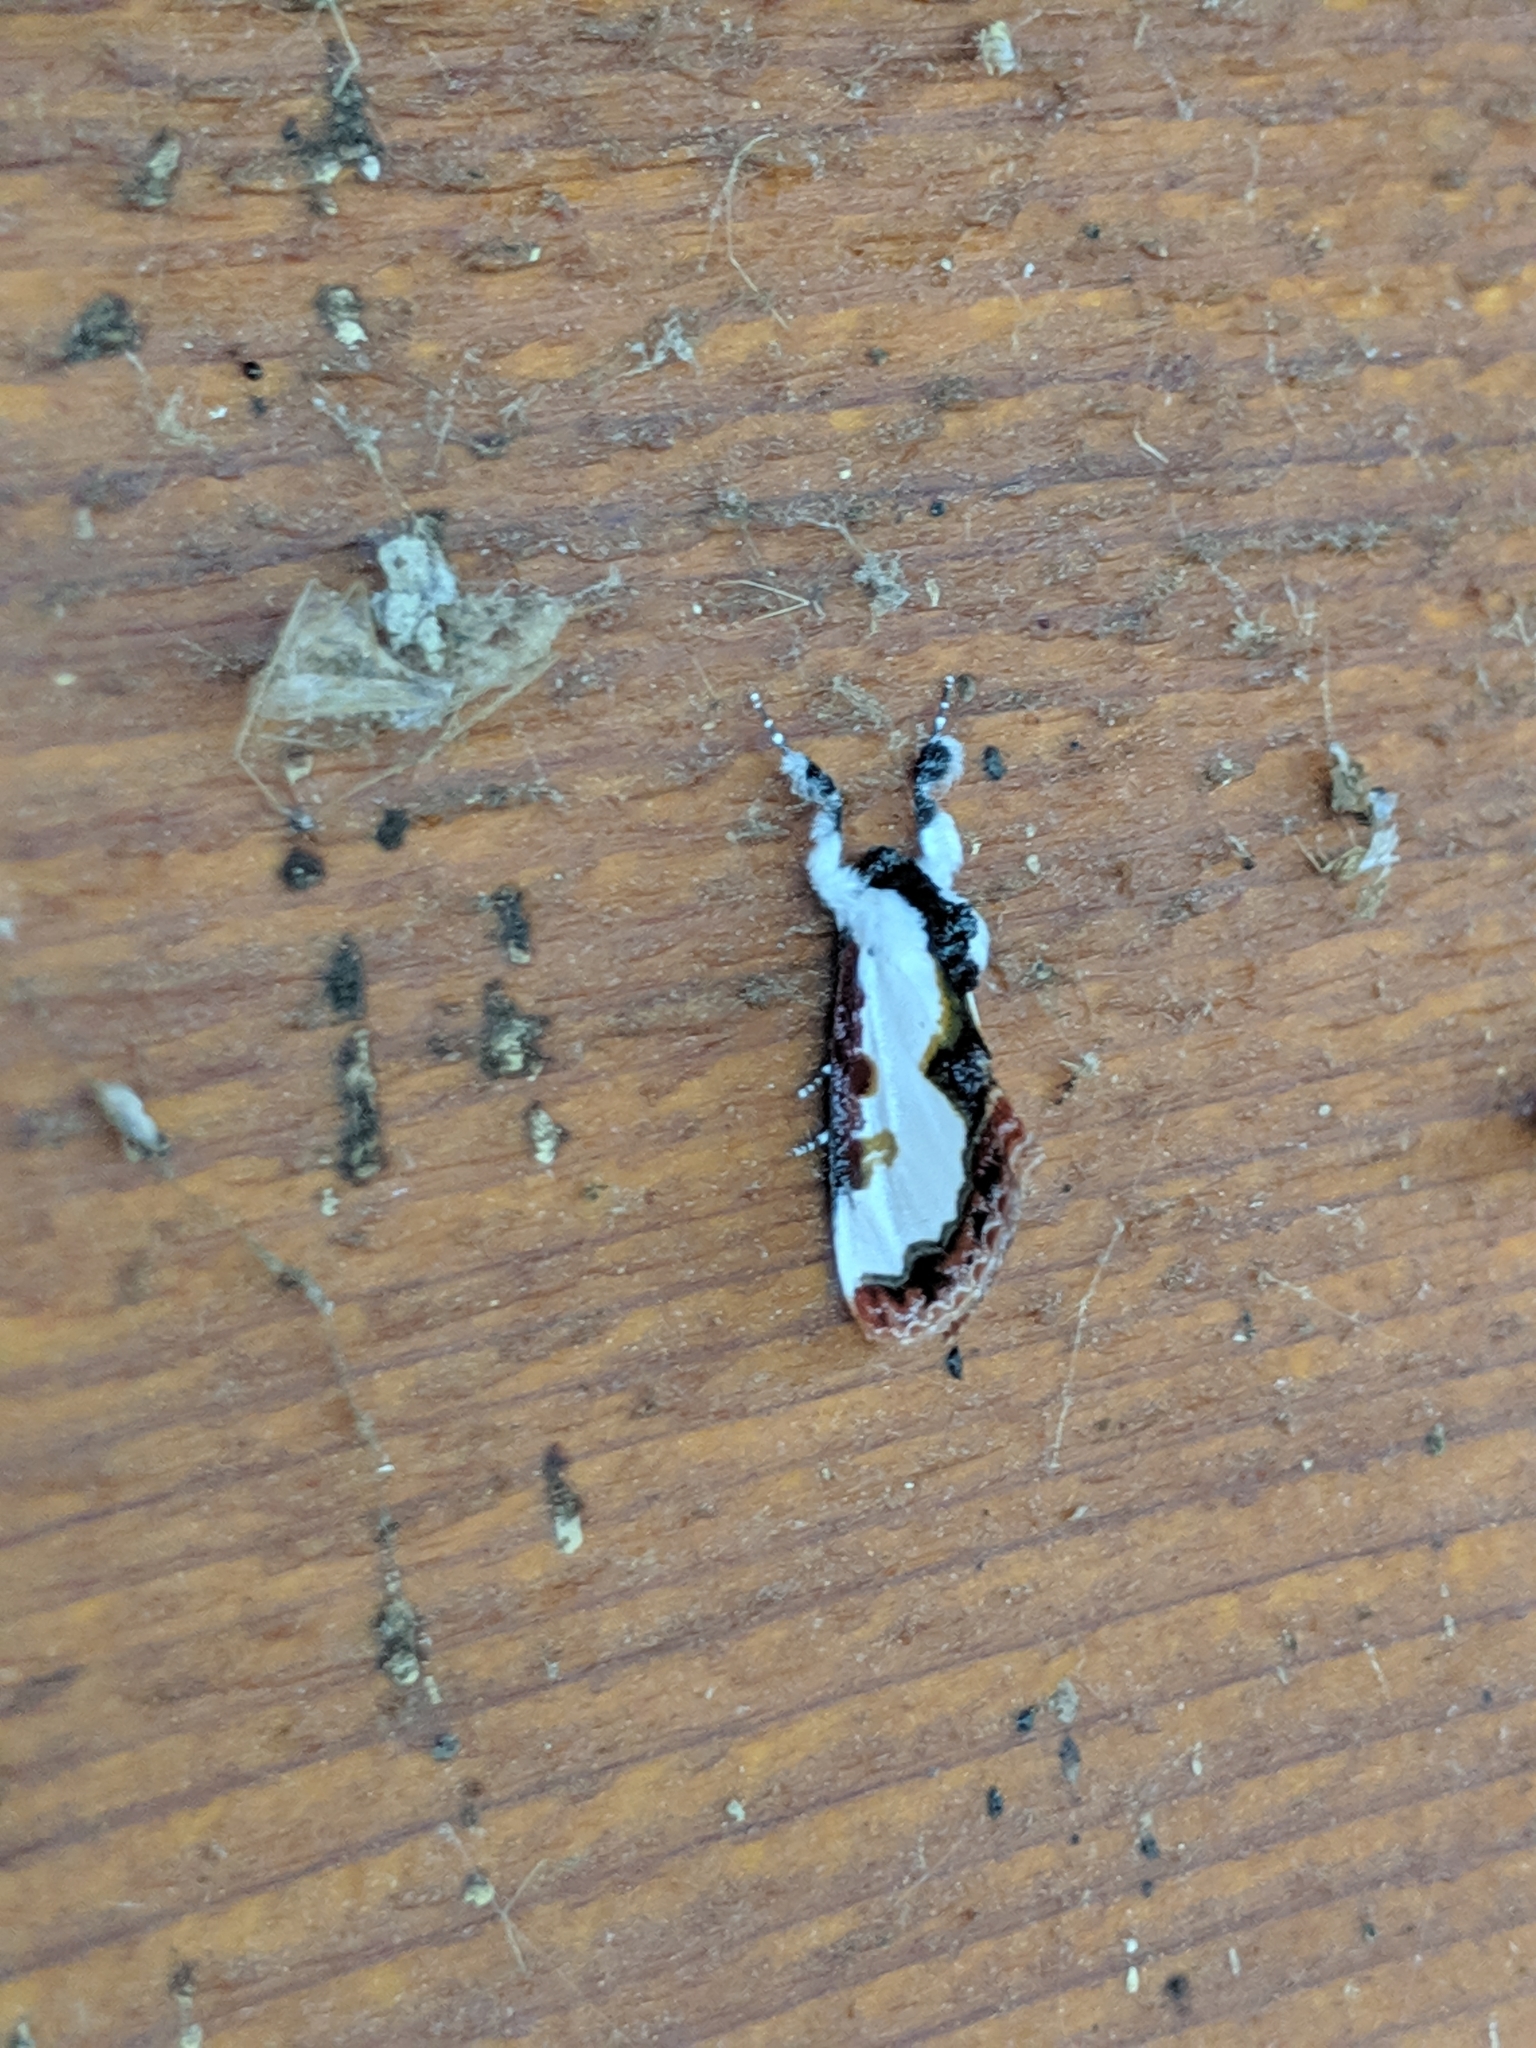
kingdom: Animalia
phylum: Arthropoda
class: Insecta
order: Lepidoptera
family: Noctuidae
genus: Eudryas
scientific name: Eudryas unio
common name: Pearly wood-nymph
